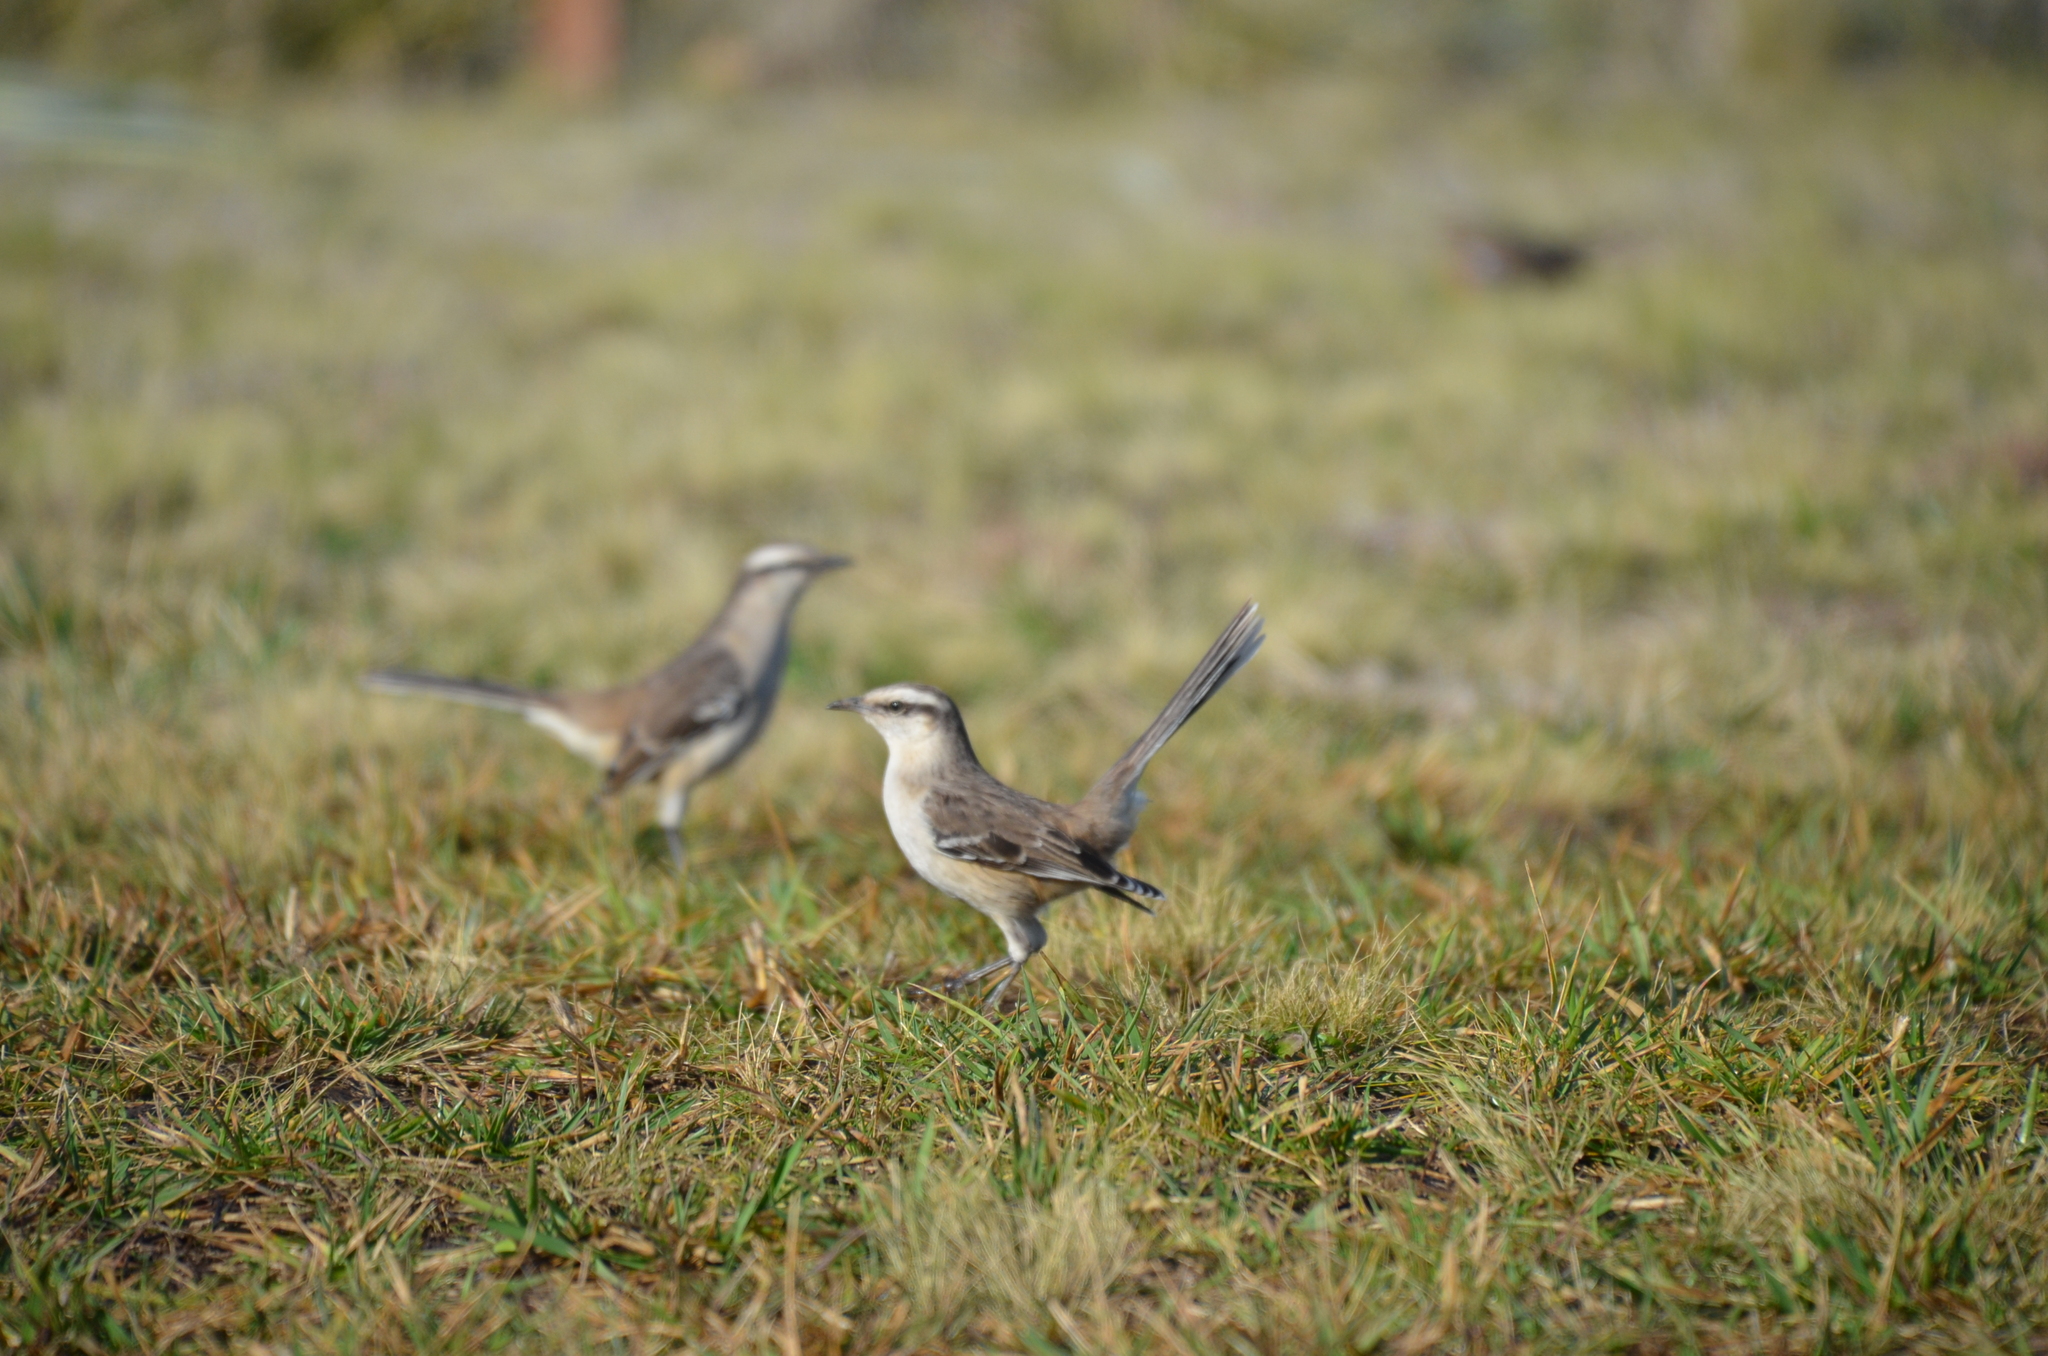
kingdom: Animalia
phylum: Chordata
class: Aves
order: Passeriformes
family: Mimidae
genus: Mimus
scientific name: Mimus saturninus
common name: Chalk-browed mockingbird
